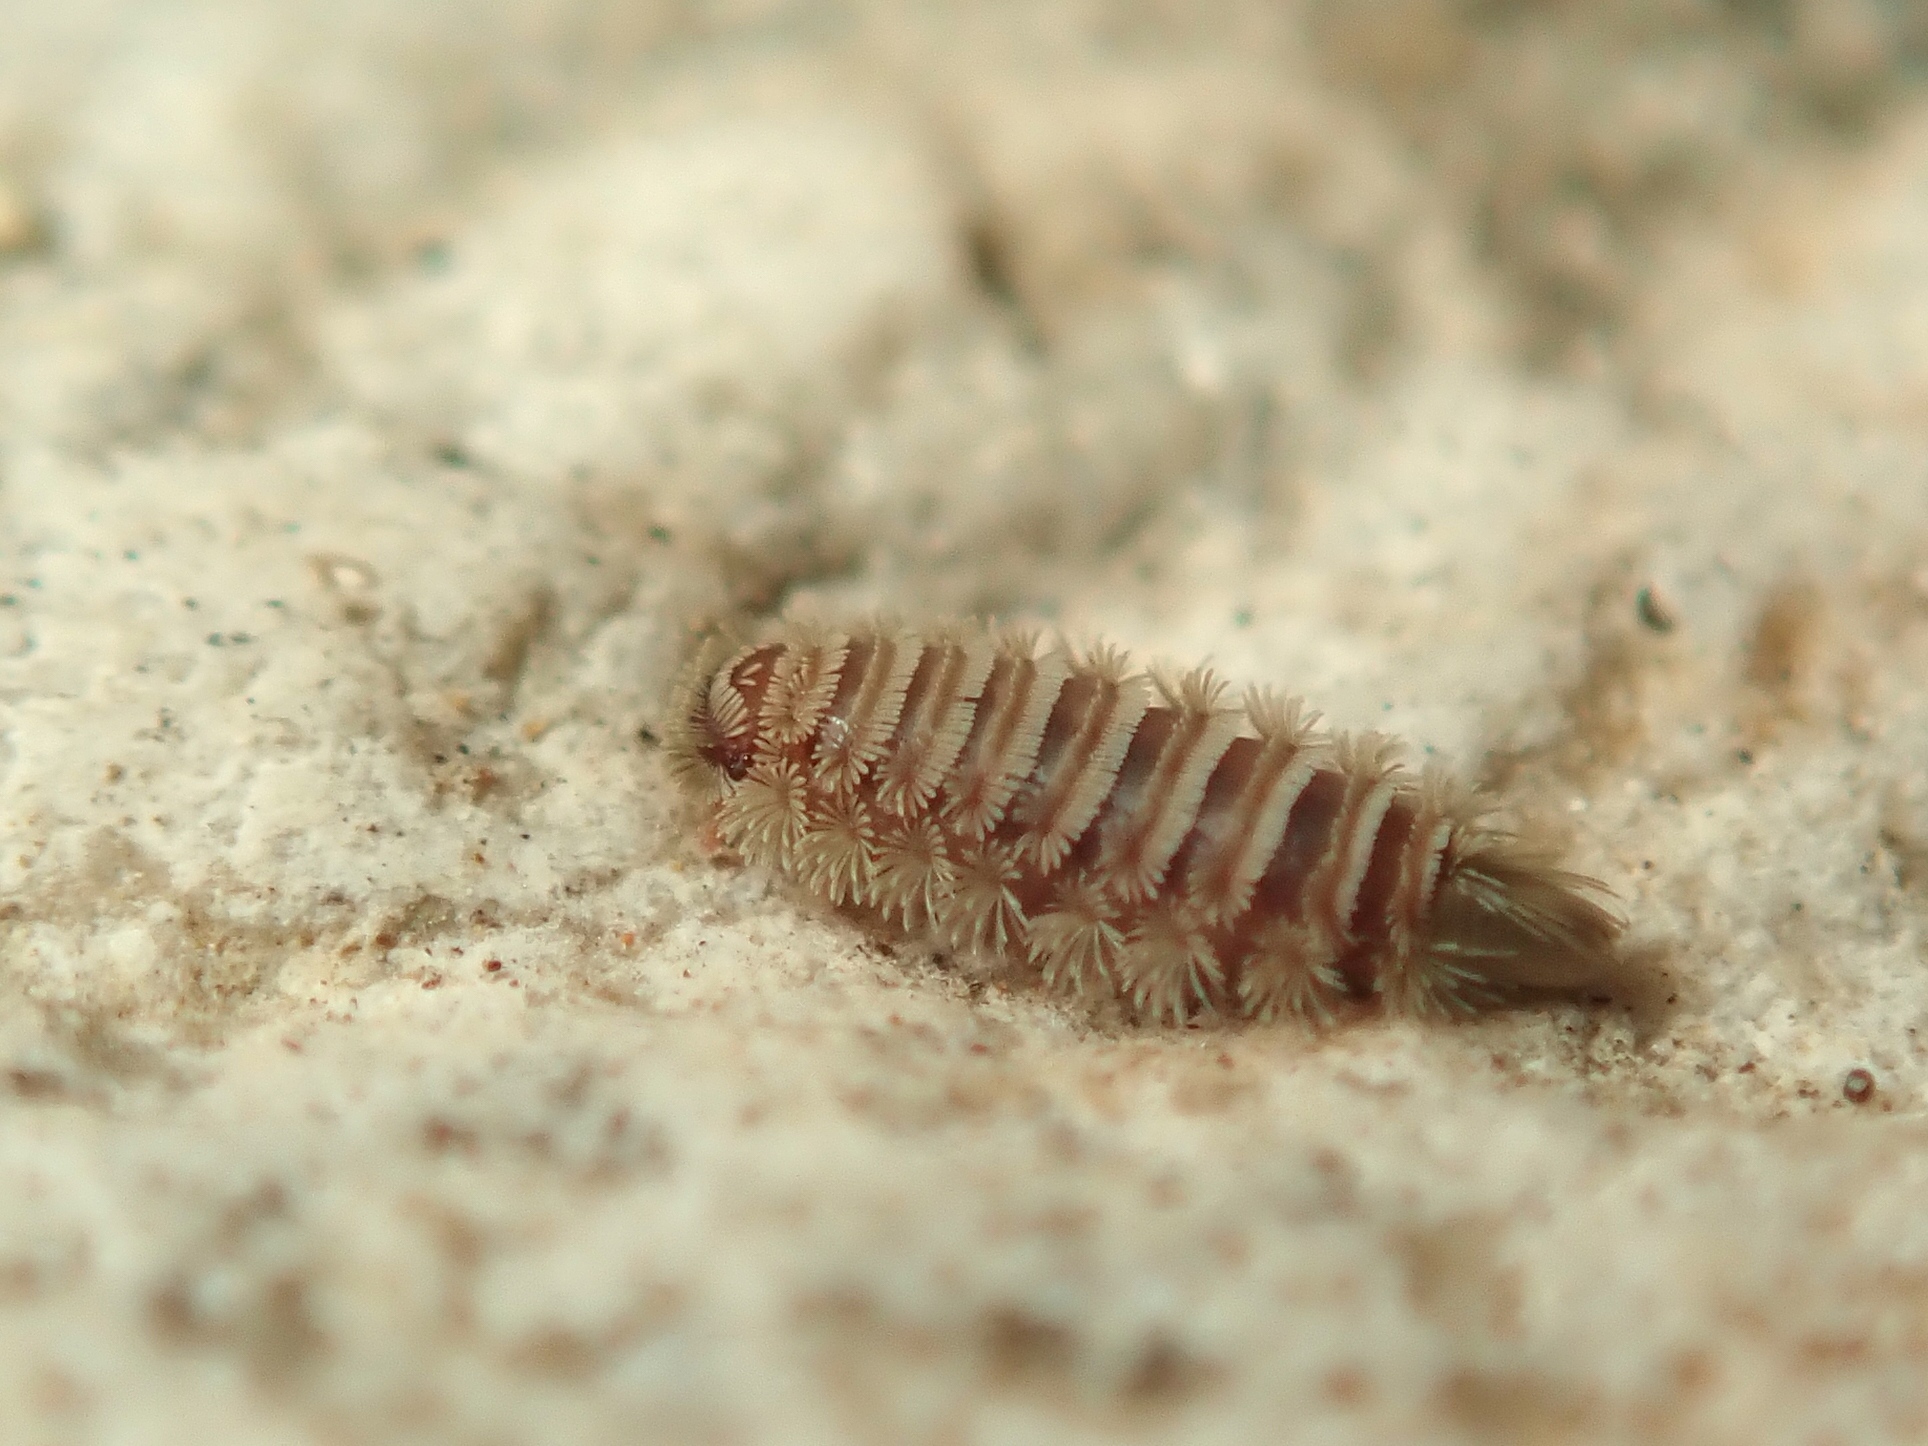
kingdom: Animalia
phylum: Arthropoda
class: Diplopoda
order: Polyxenida
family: Polyxenidae
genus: Polyxenus
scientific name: Polyxenus lagurus
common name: Bristly millipede
